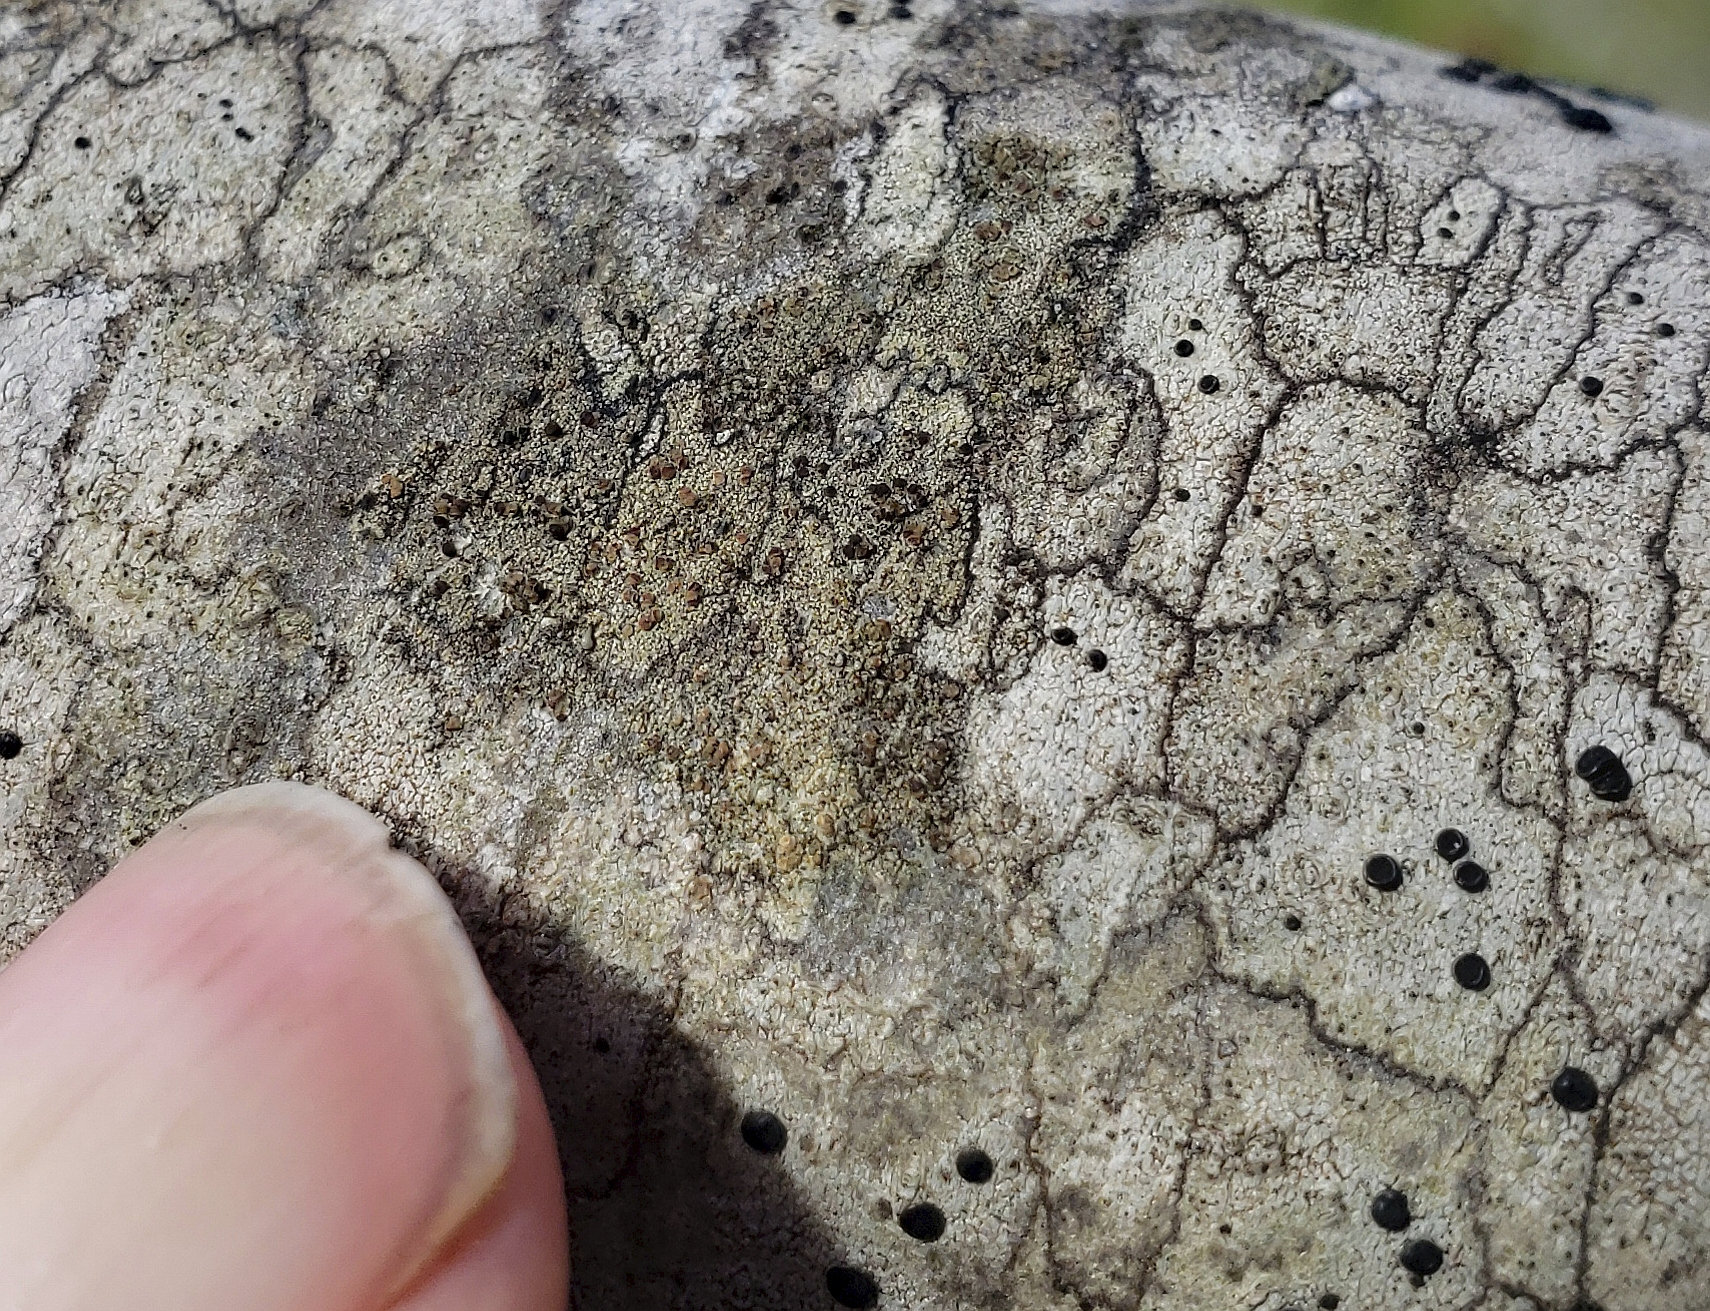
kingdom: Fungi
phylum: Ascomycota
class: Lecanoromycetes
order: Lecanorales
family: Lecanoraceae
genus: Traponora
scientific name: Traponora varians
